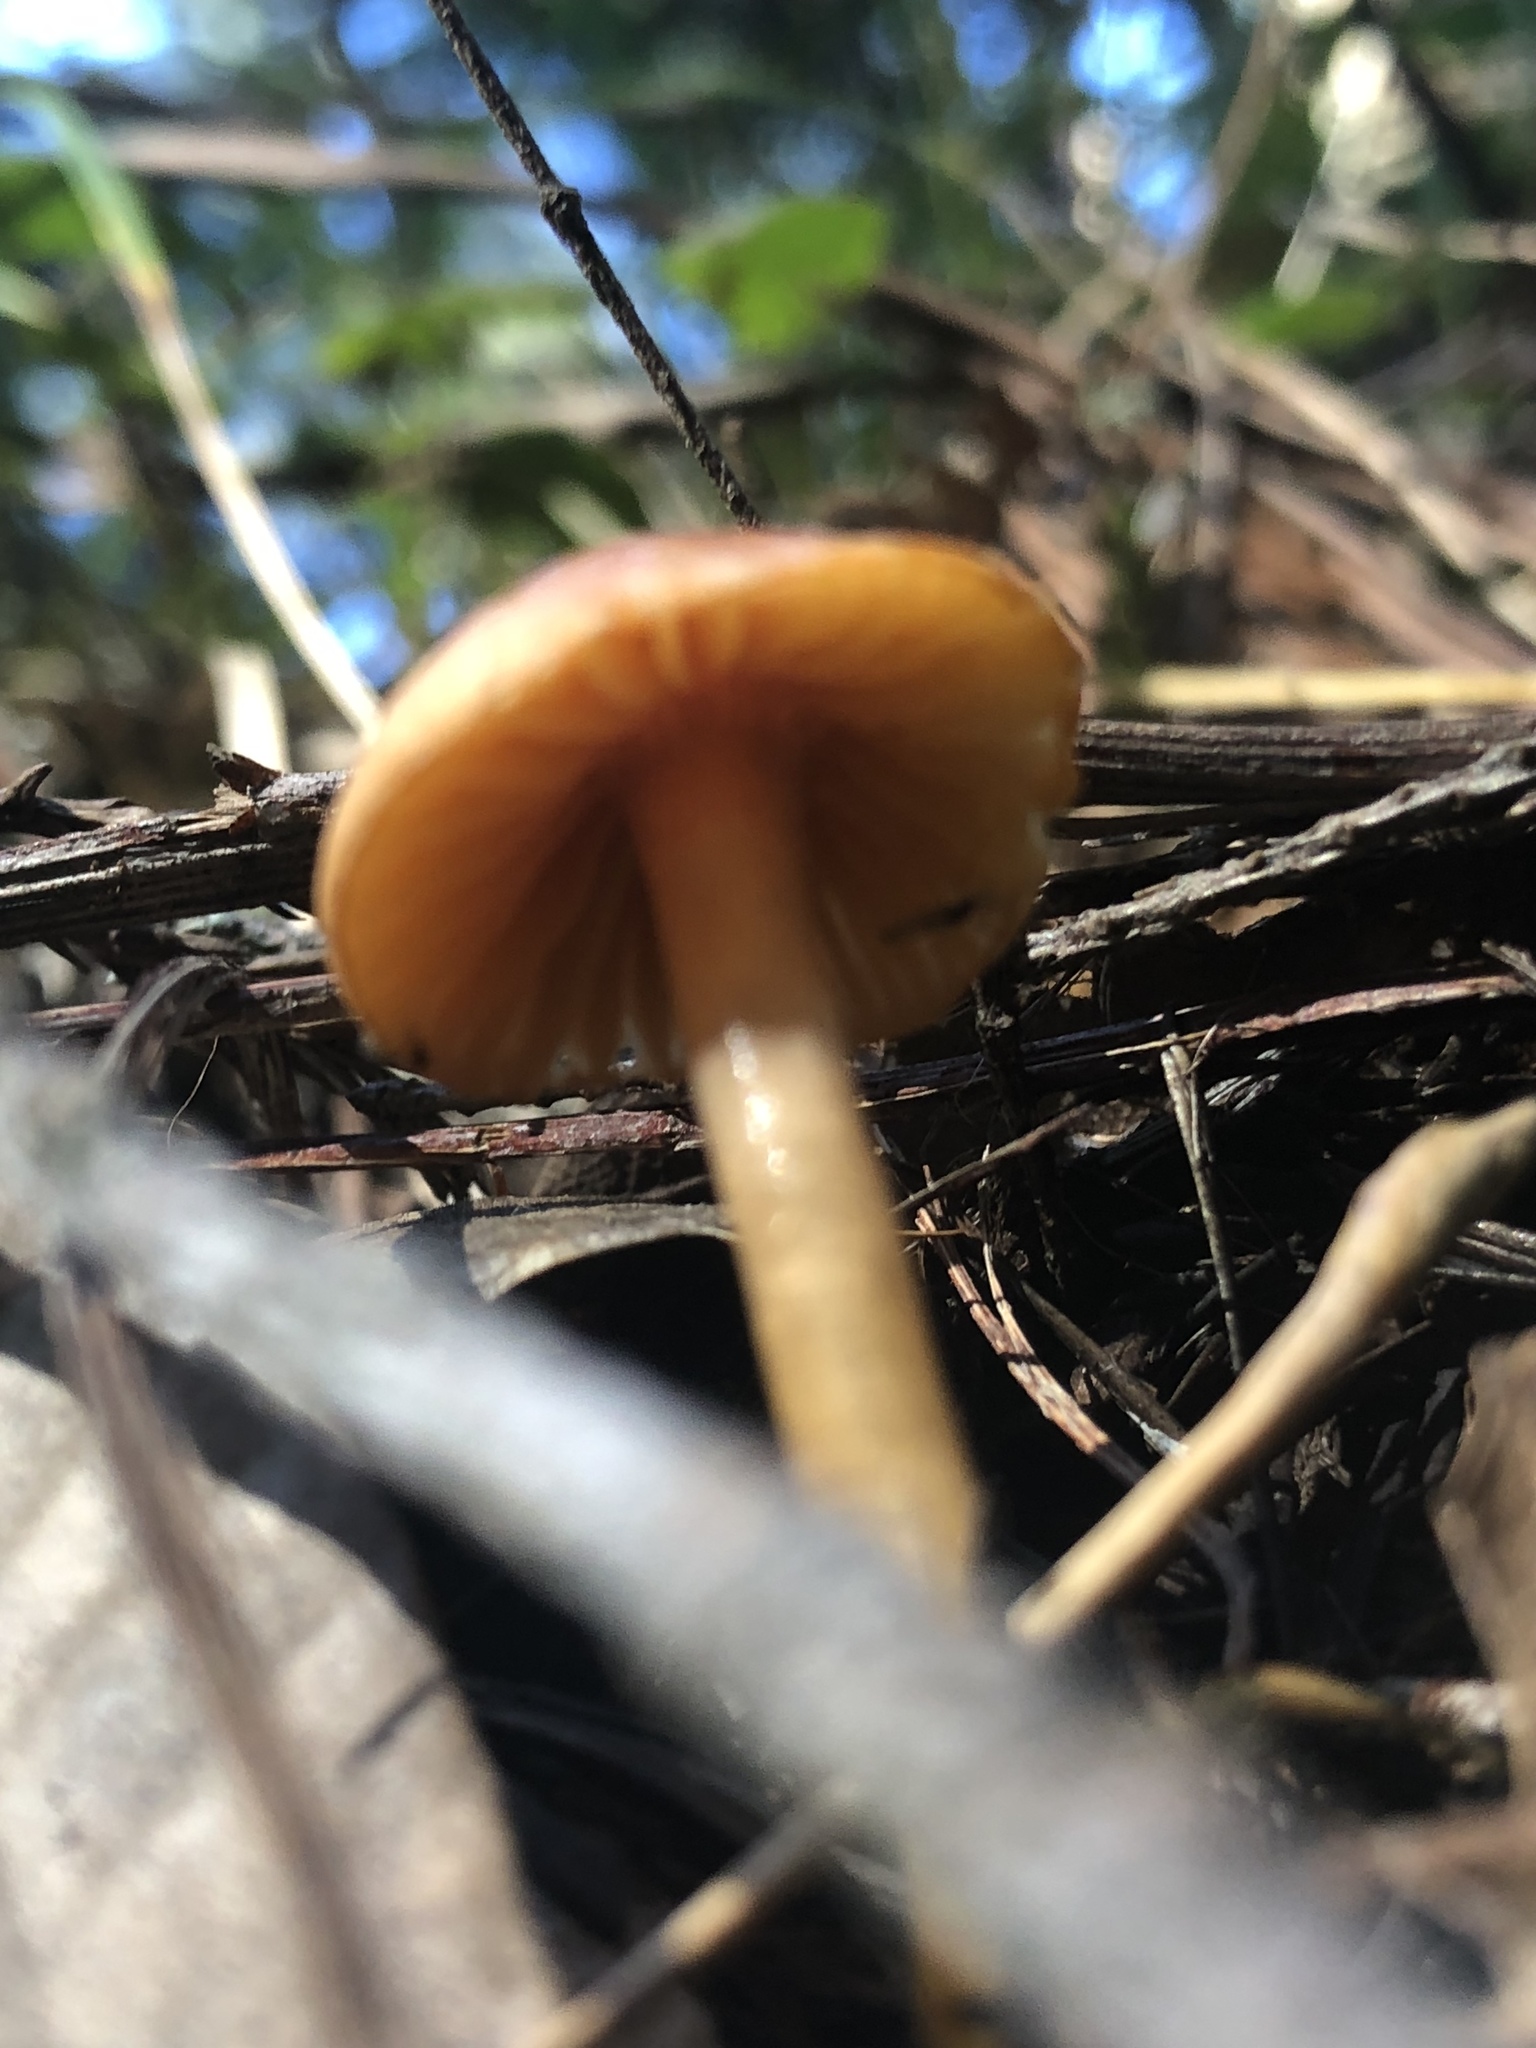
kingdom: Fungi
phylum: Basidiomycota
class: Agaricomycetes
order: Agaricales
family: Hygrophoraceae
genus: Gliophorus
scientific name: Gliophorus psittacinus
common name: Parrot wax-cap
